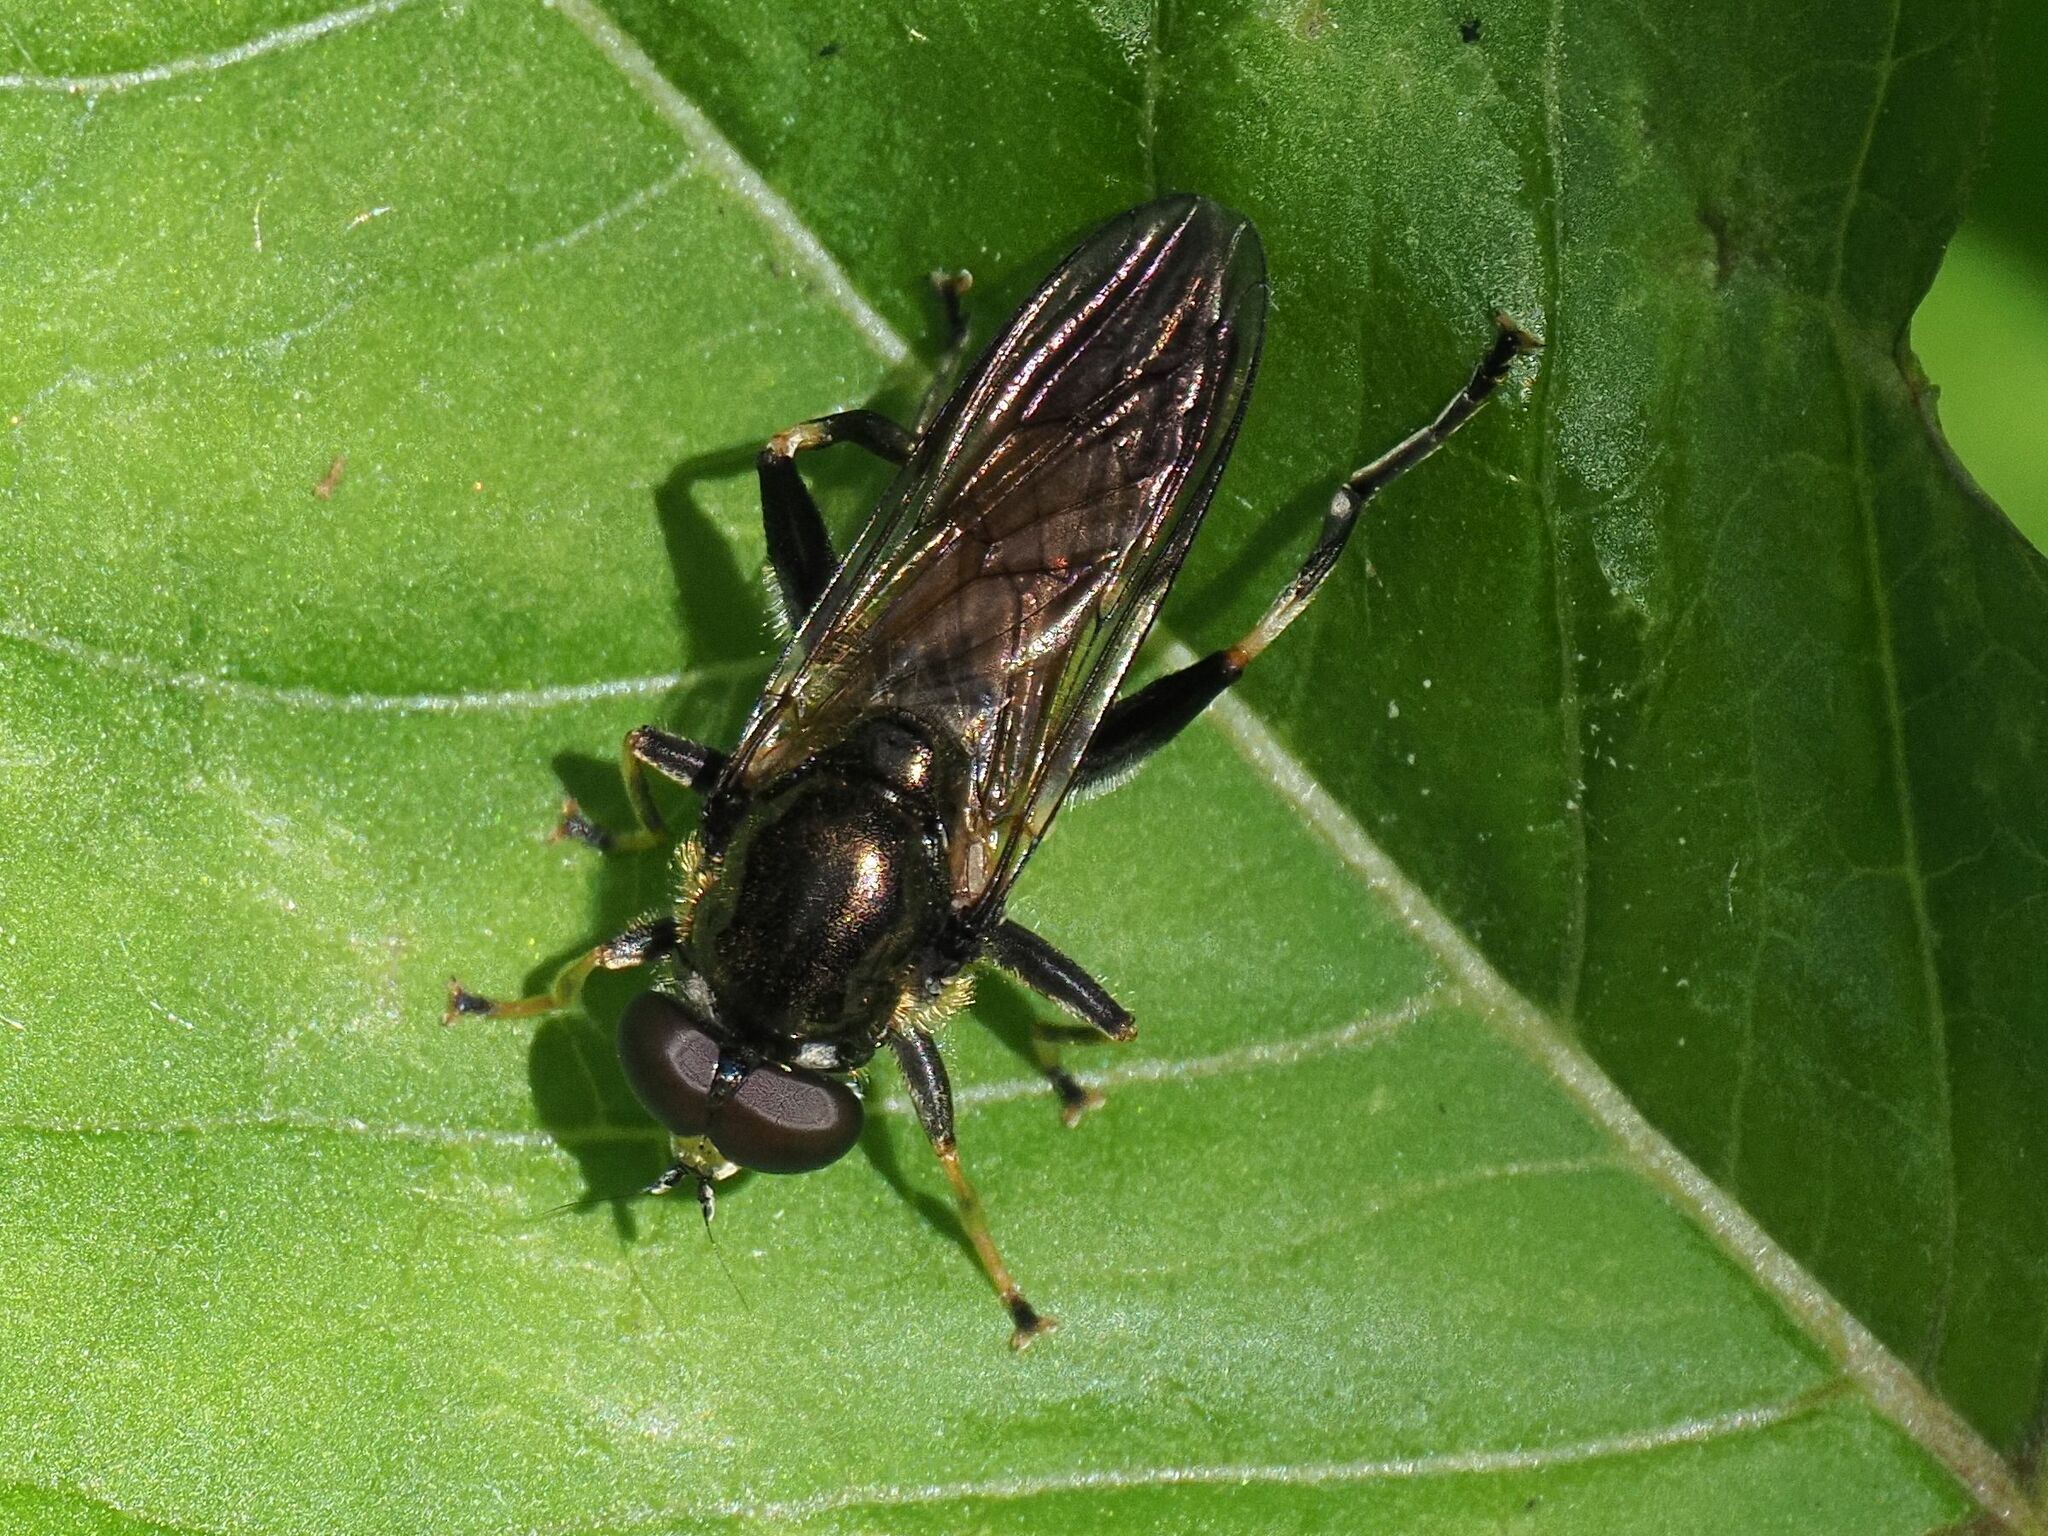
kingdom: Animalia
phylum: Arthropoda
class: Insecta
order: Diptera
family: Syrphidae
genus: Xylota
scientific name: Xylota segnis
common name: Brown-toed forest fly
